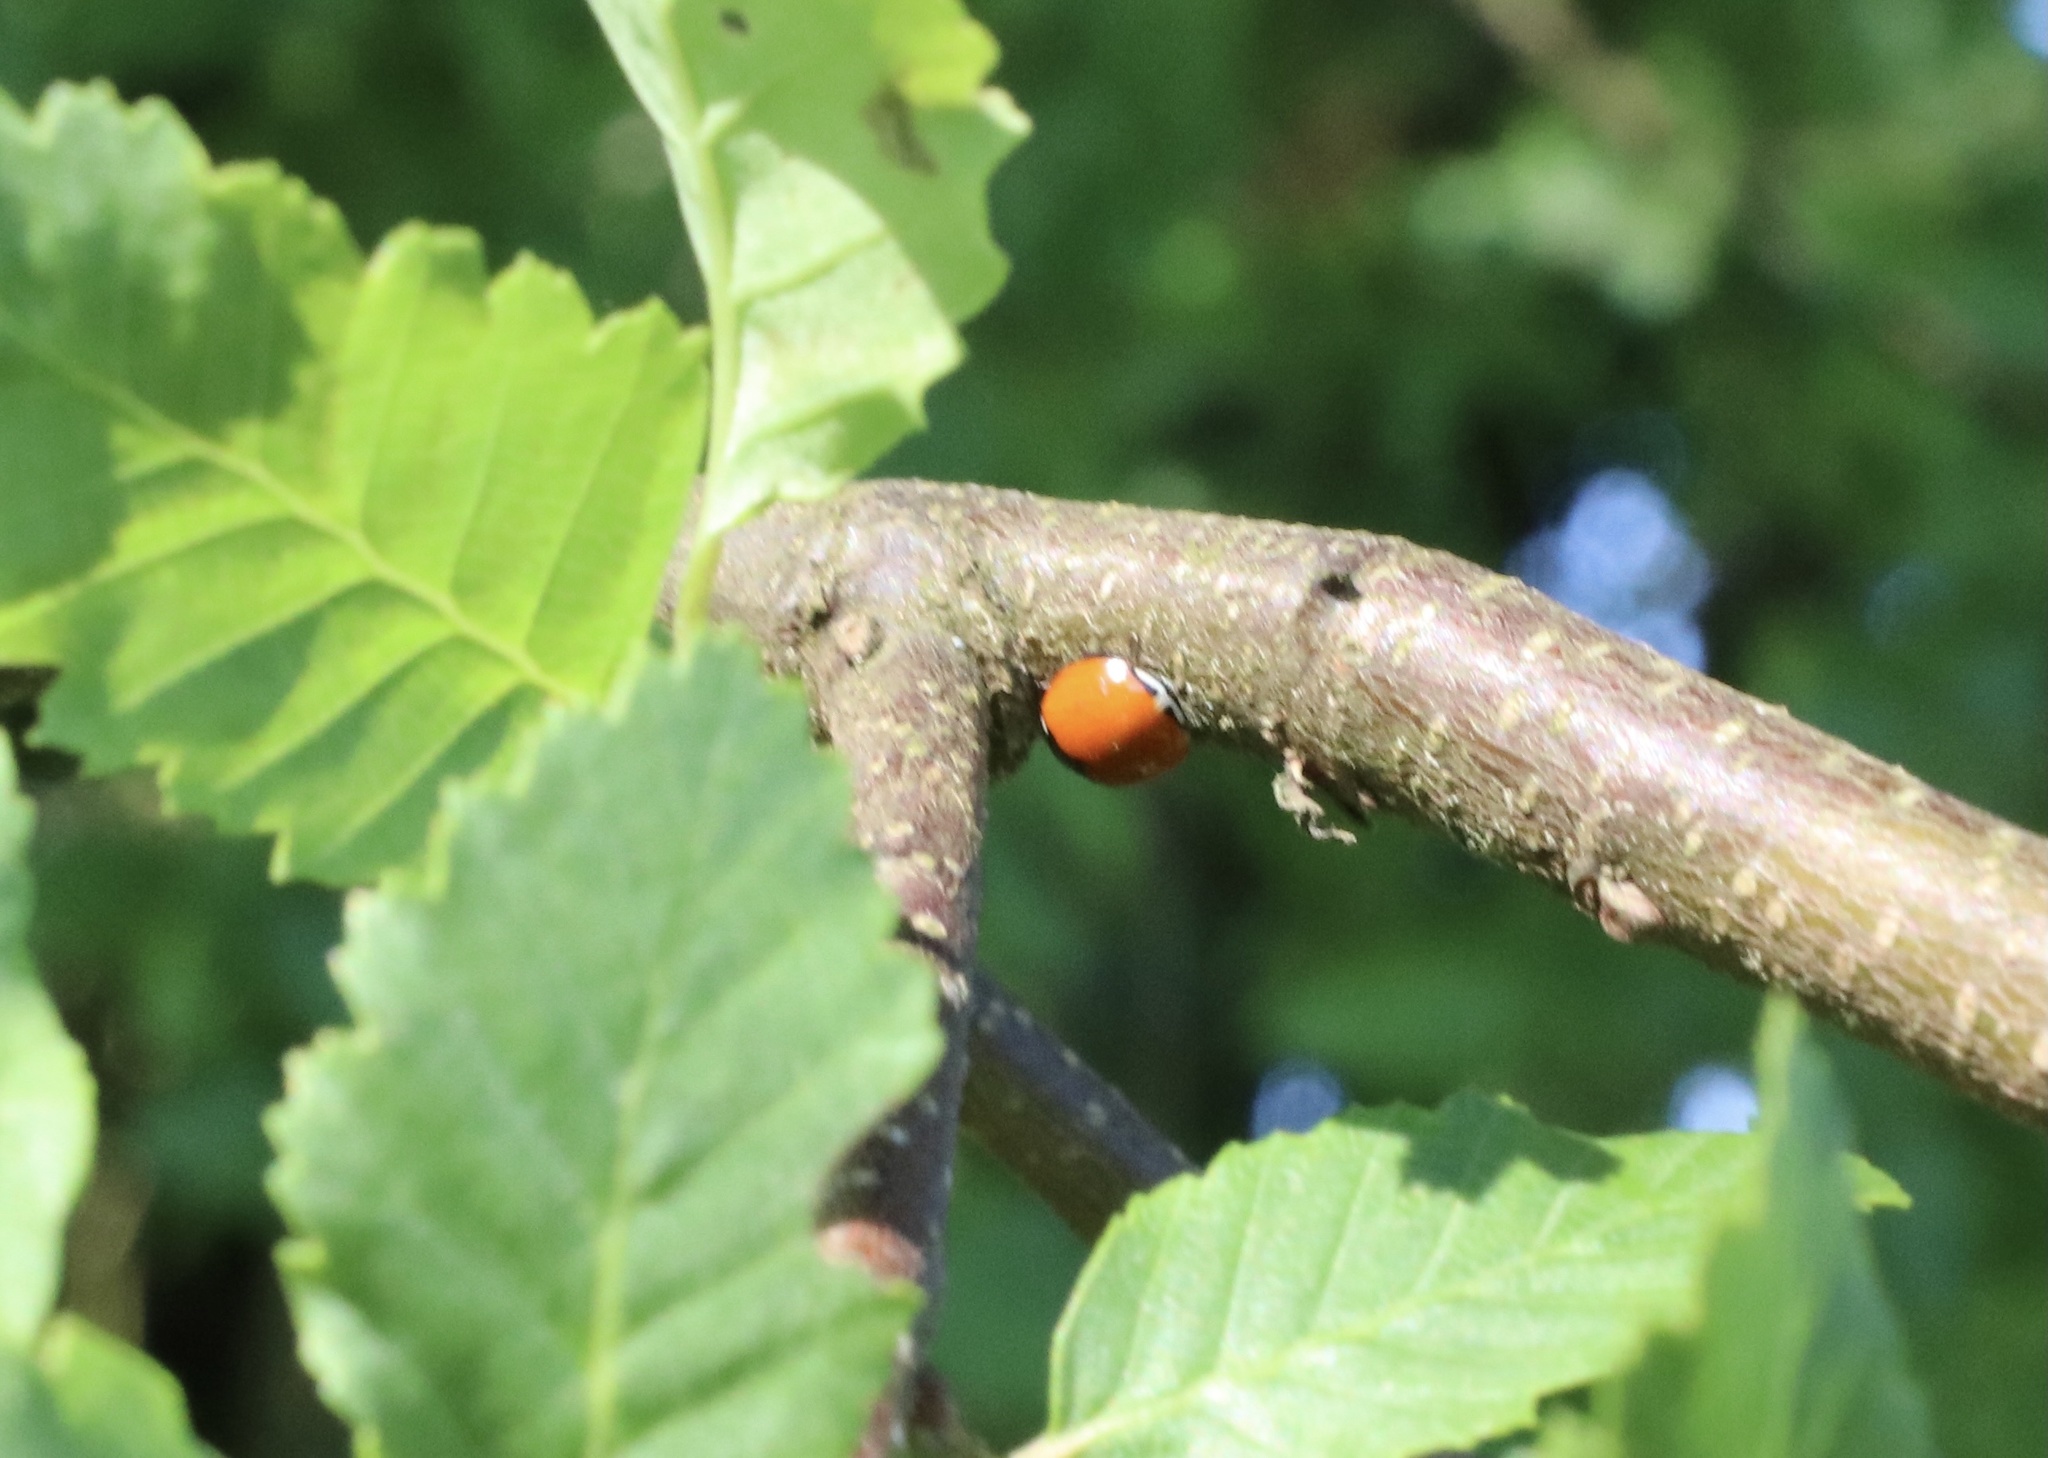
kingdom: Animalia
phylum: Arthropoda
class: Insecta
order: Coleoptera
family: Coccinellidae
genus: Adalia
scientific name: Adalia deficiens
